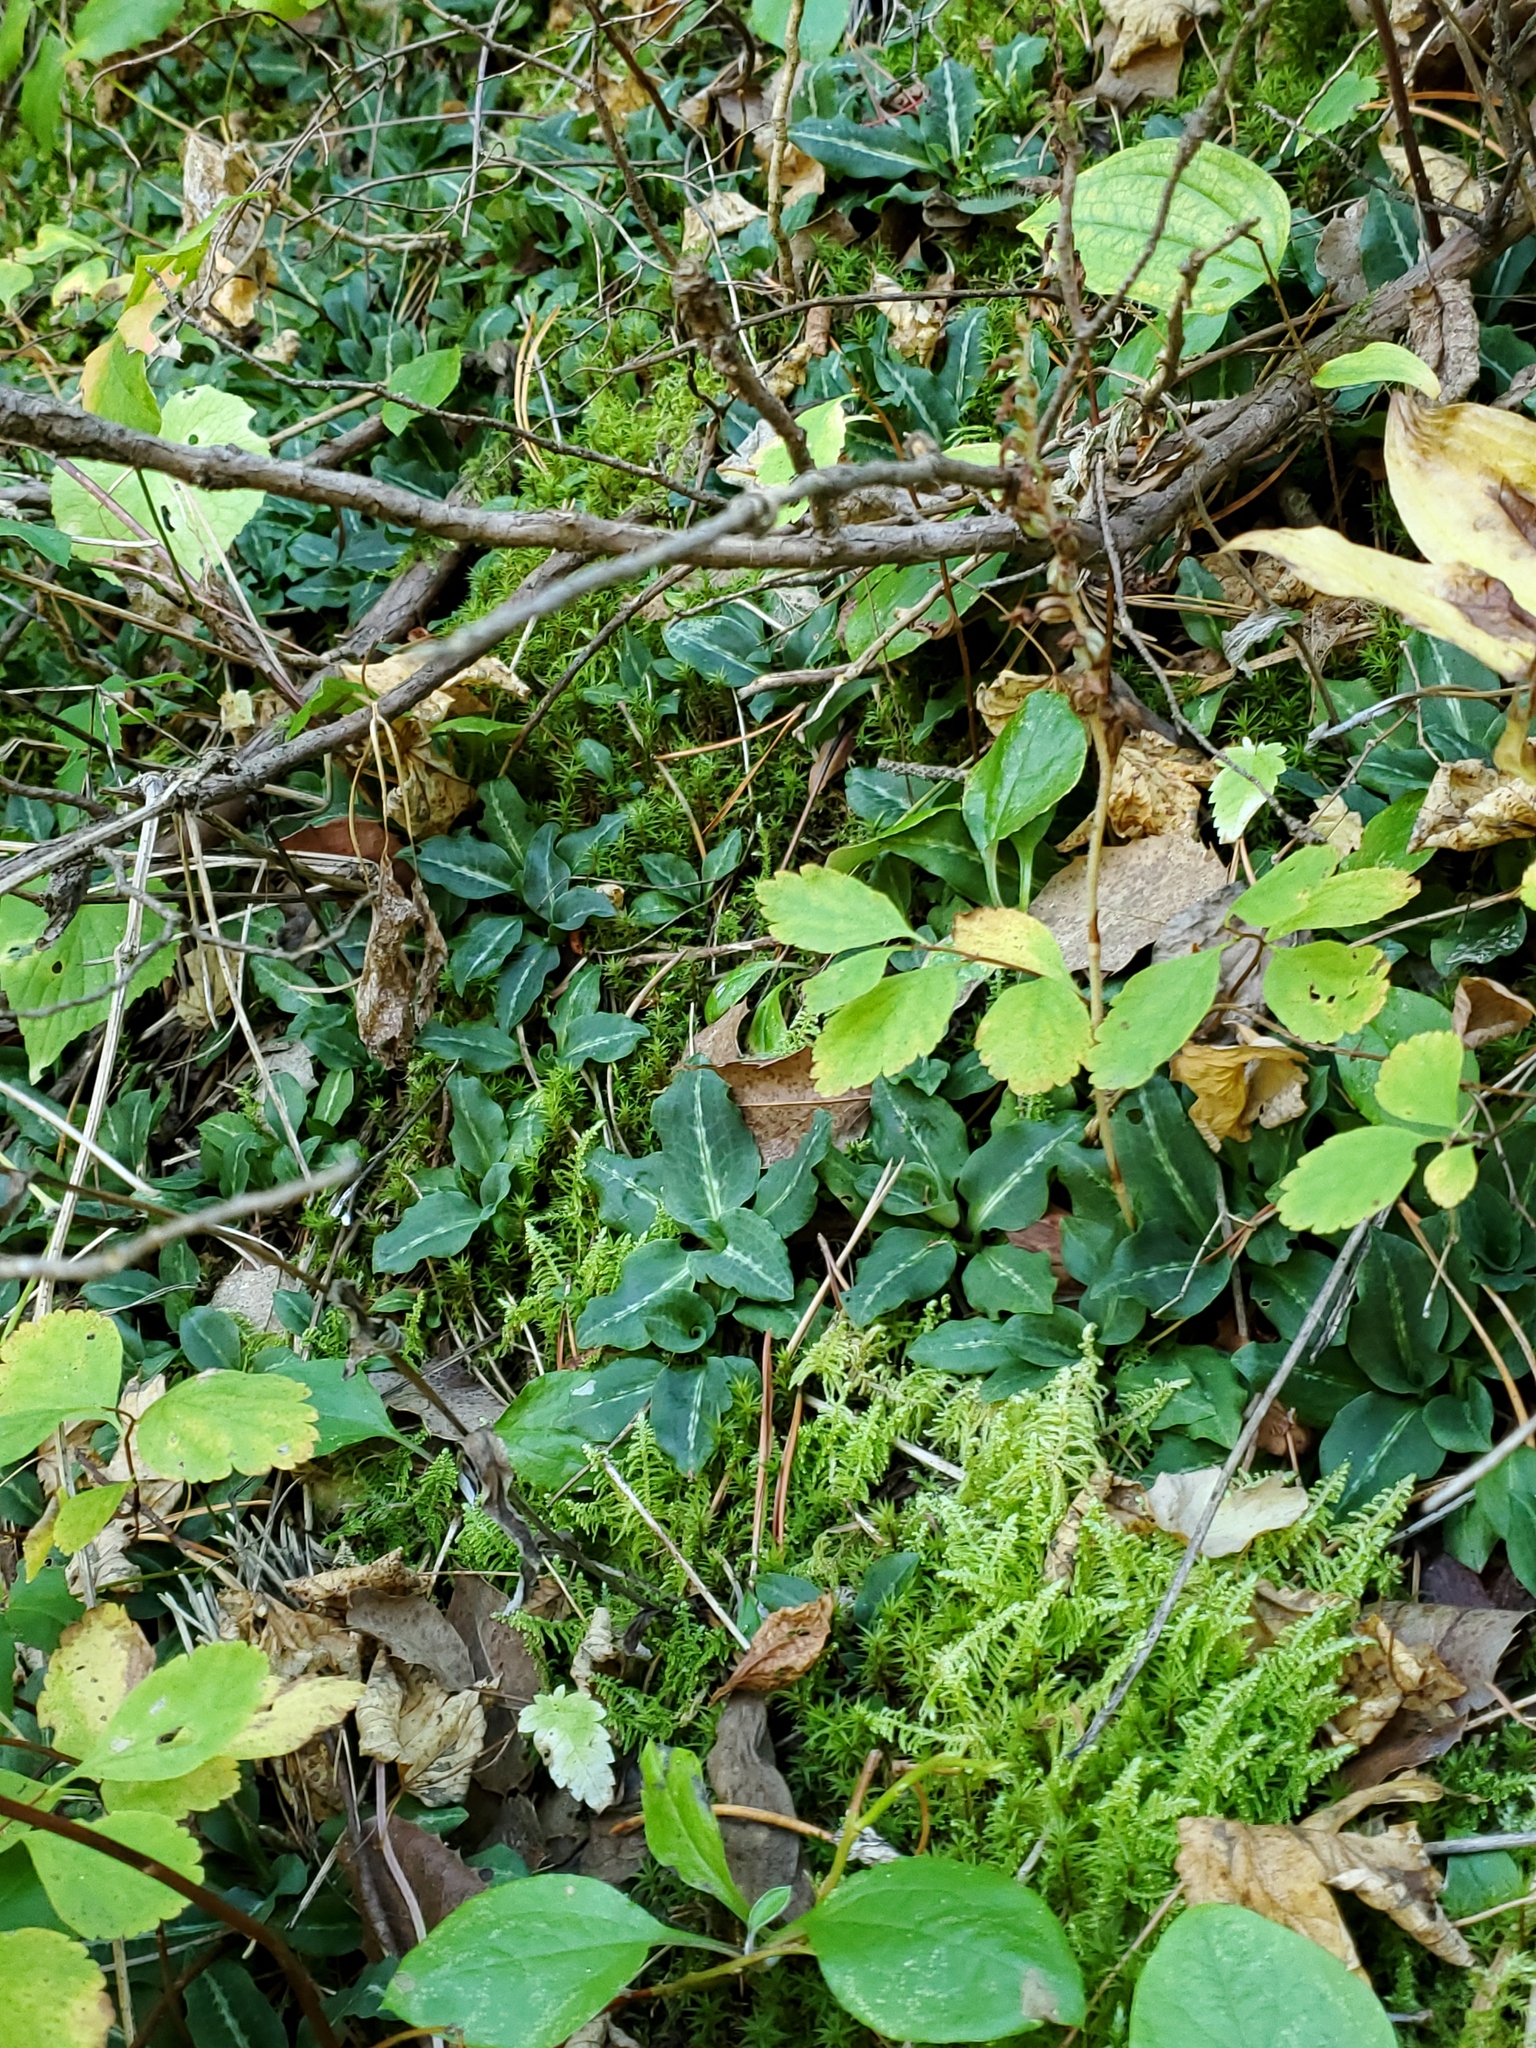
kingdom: Plantae
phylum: Tracheophyta
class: Liliopsida
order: Asparagales
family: Orchidaceae
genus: Goodyera
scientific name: Goodyera oblongifolia
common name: Giant rattlesnake-plantain
